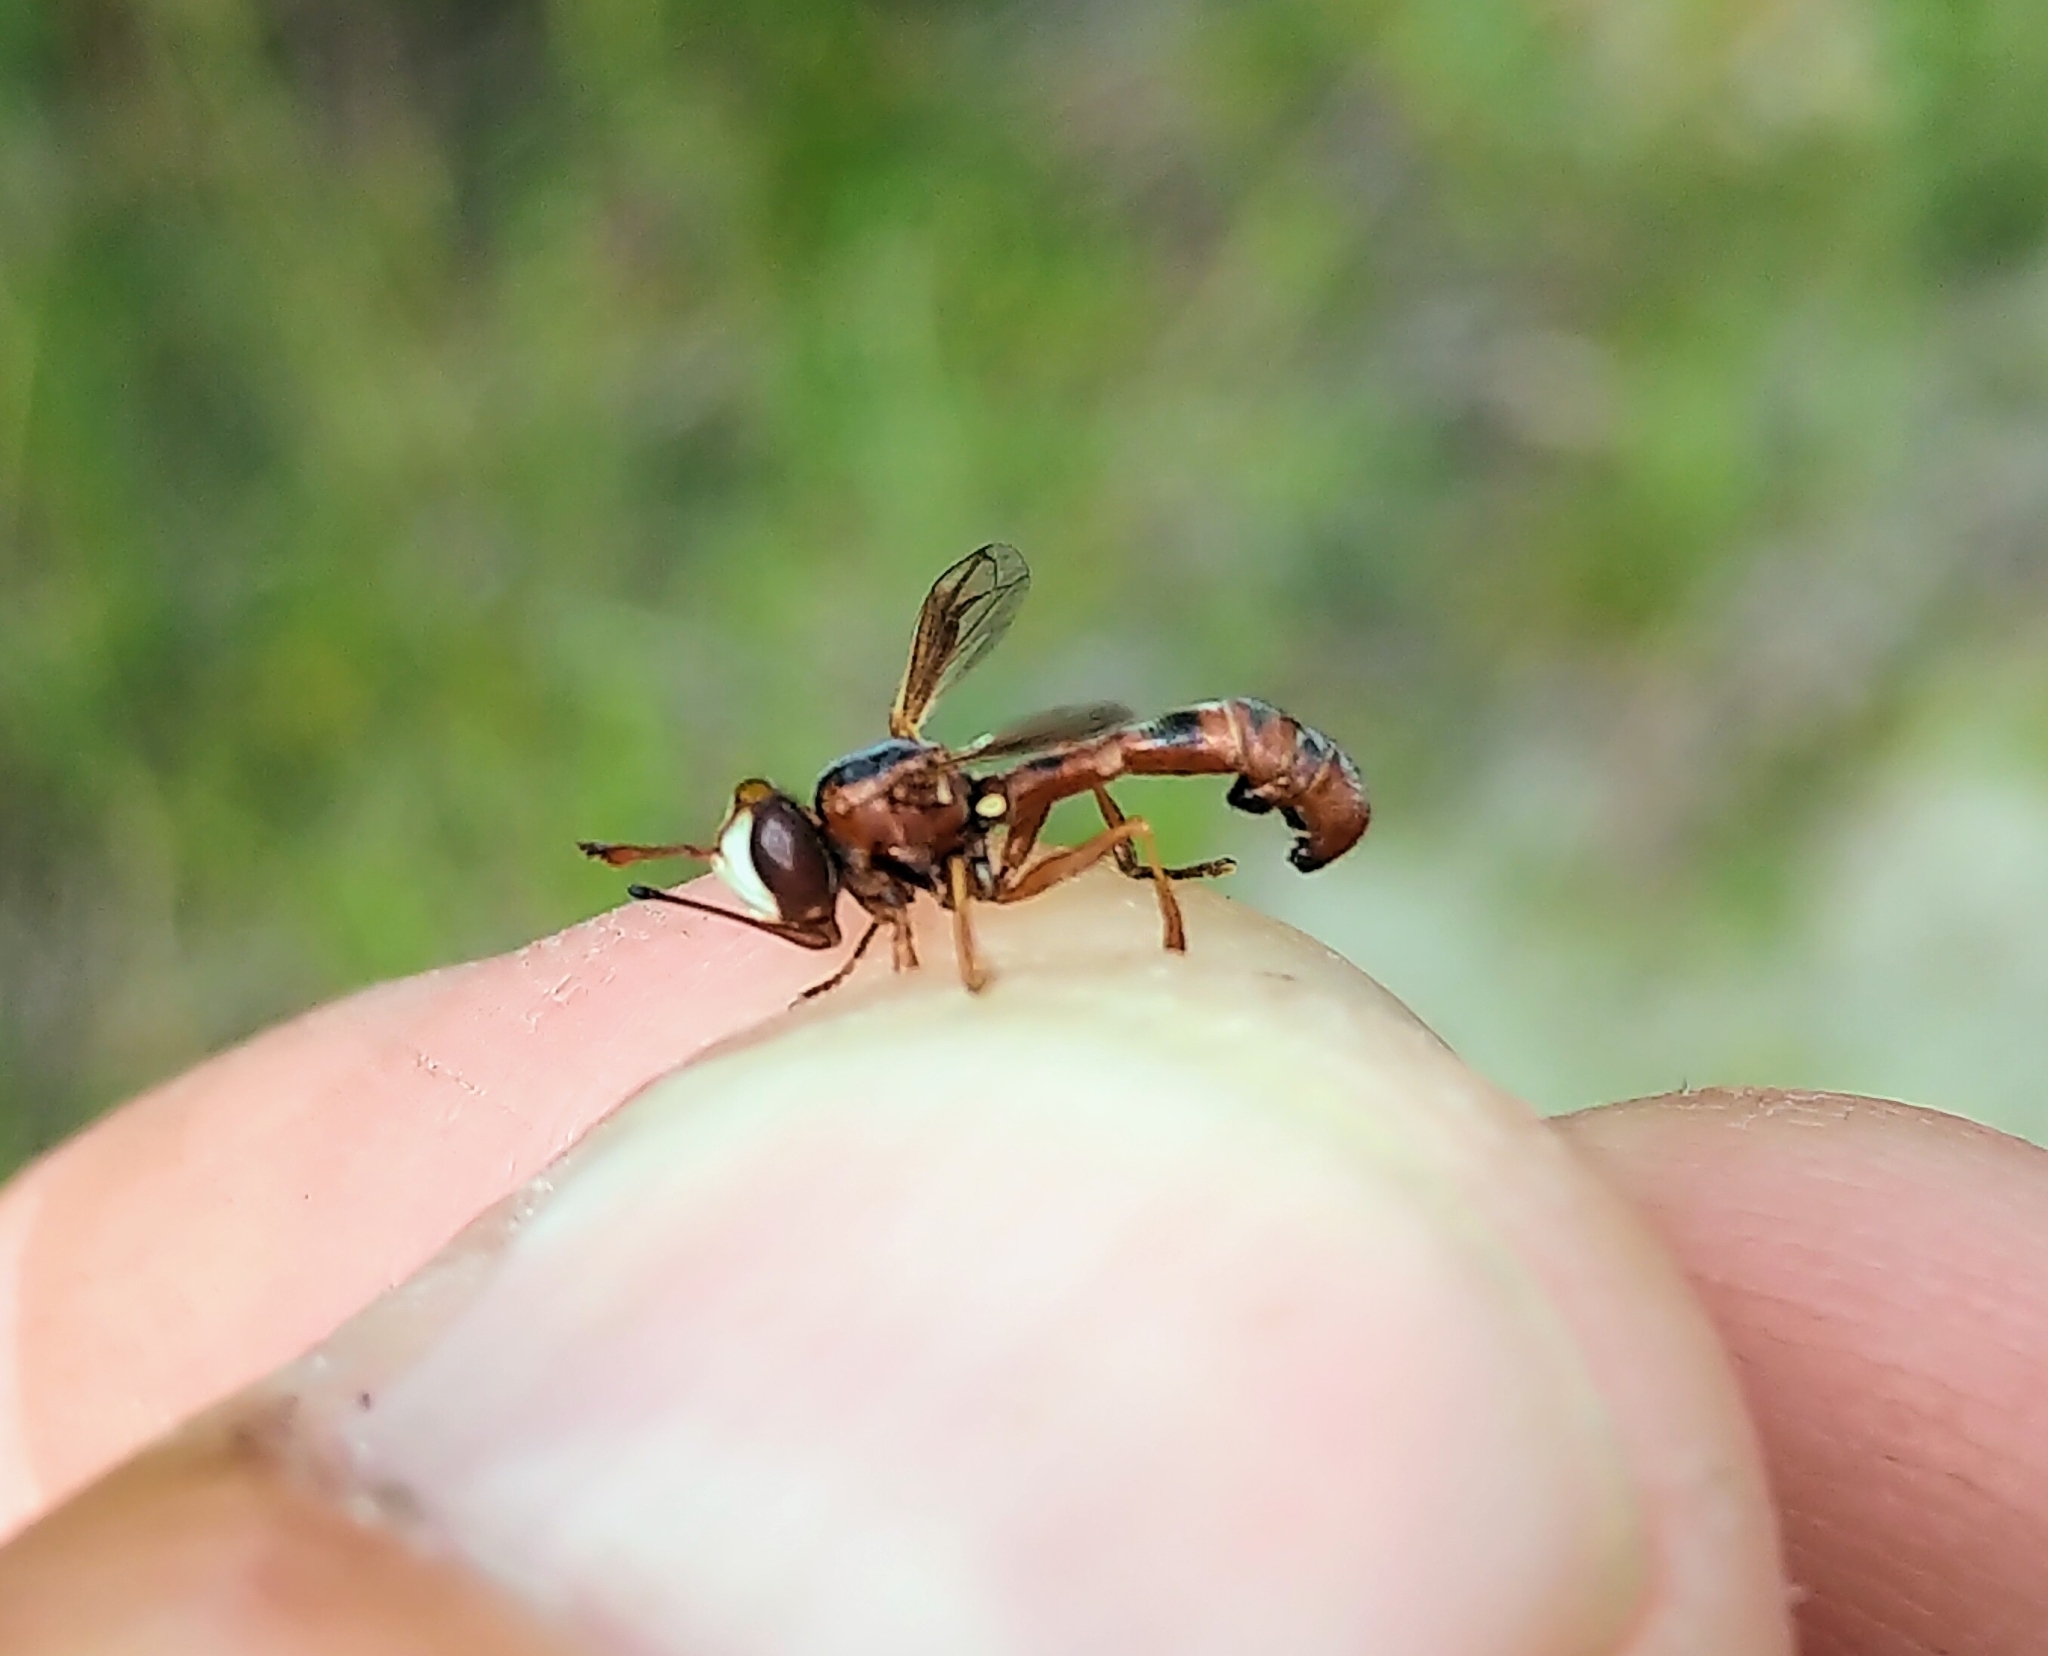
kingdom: Animalia
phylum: Arthropoda
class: Insecta
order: Diptera
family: Conopidae
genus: Physocephala
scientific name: Physocephala texana
